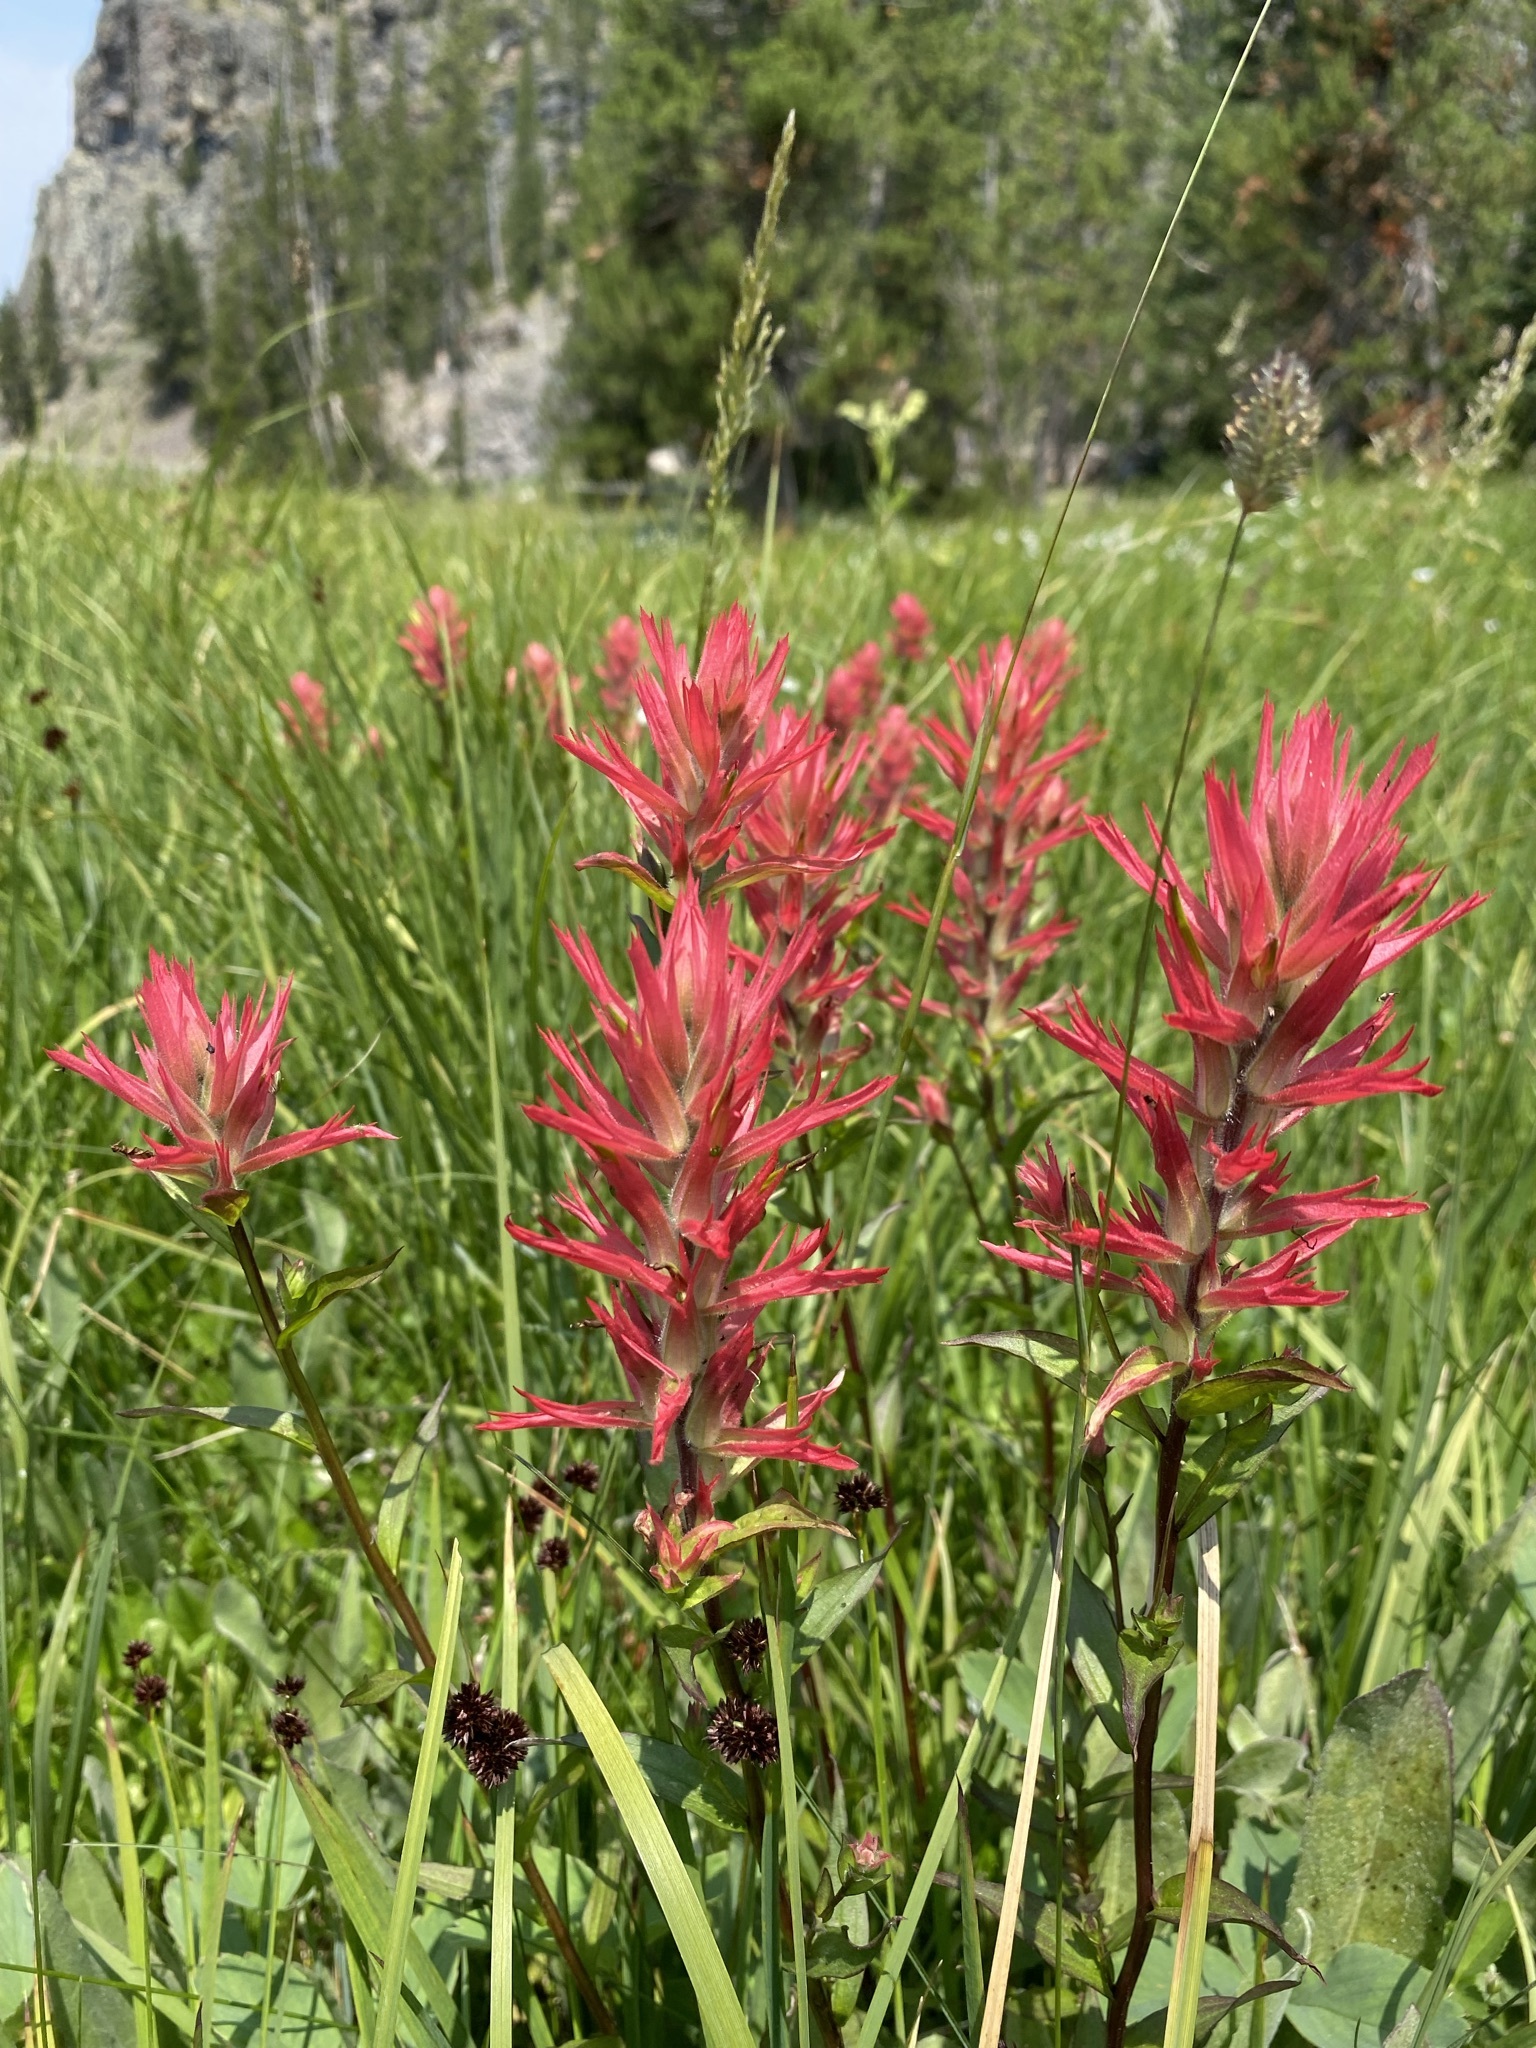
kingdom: Plantae
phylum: Tracheophyta
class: Magnoliopsida
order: Lamiales
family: Orobanchaceae
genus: Castilleja
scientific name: Castilleja miniata
